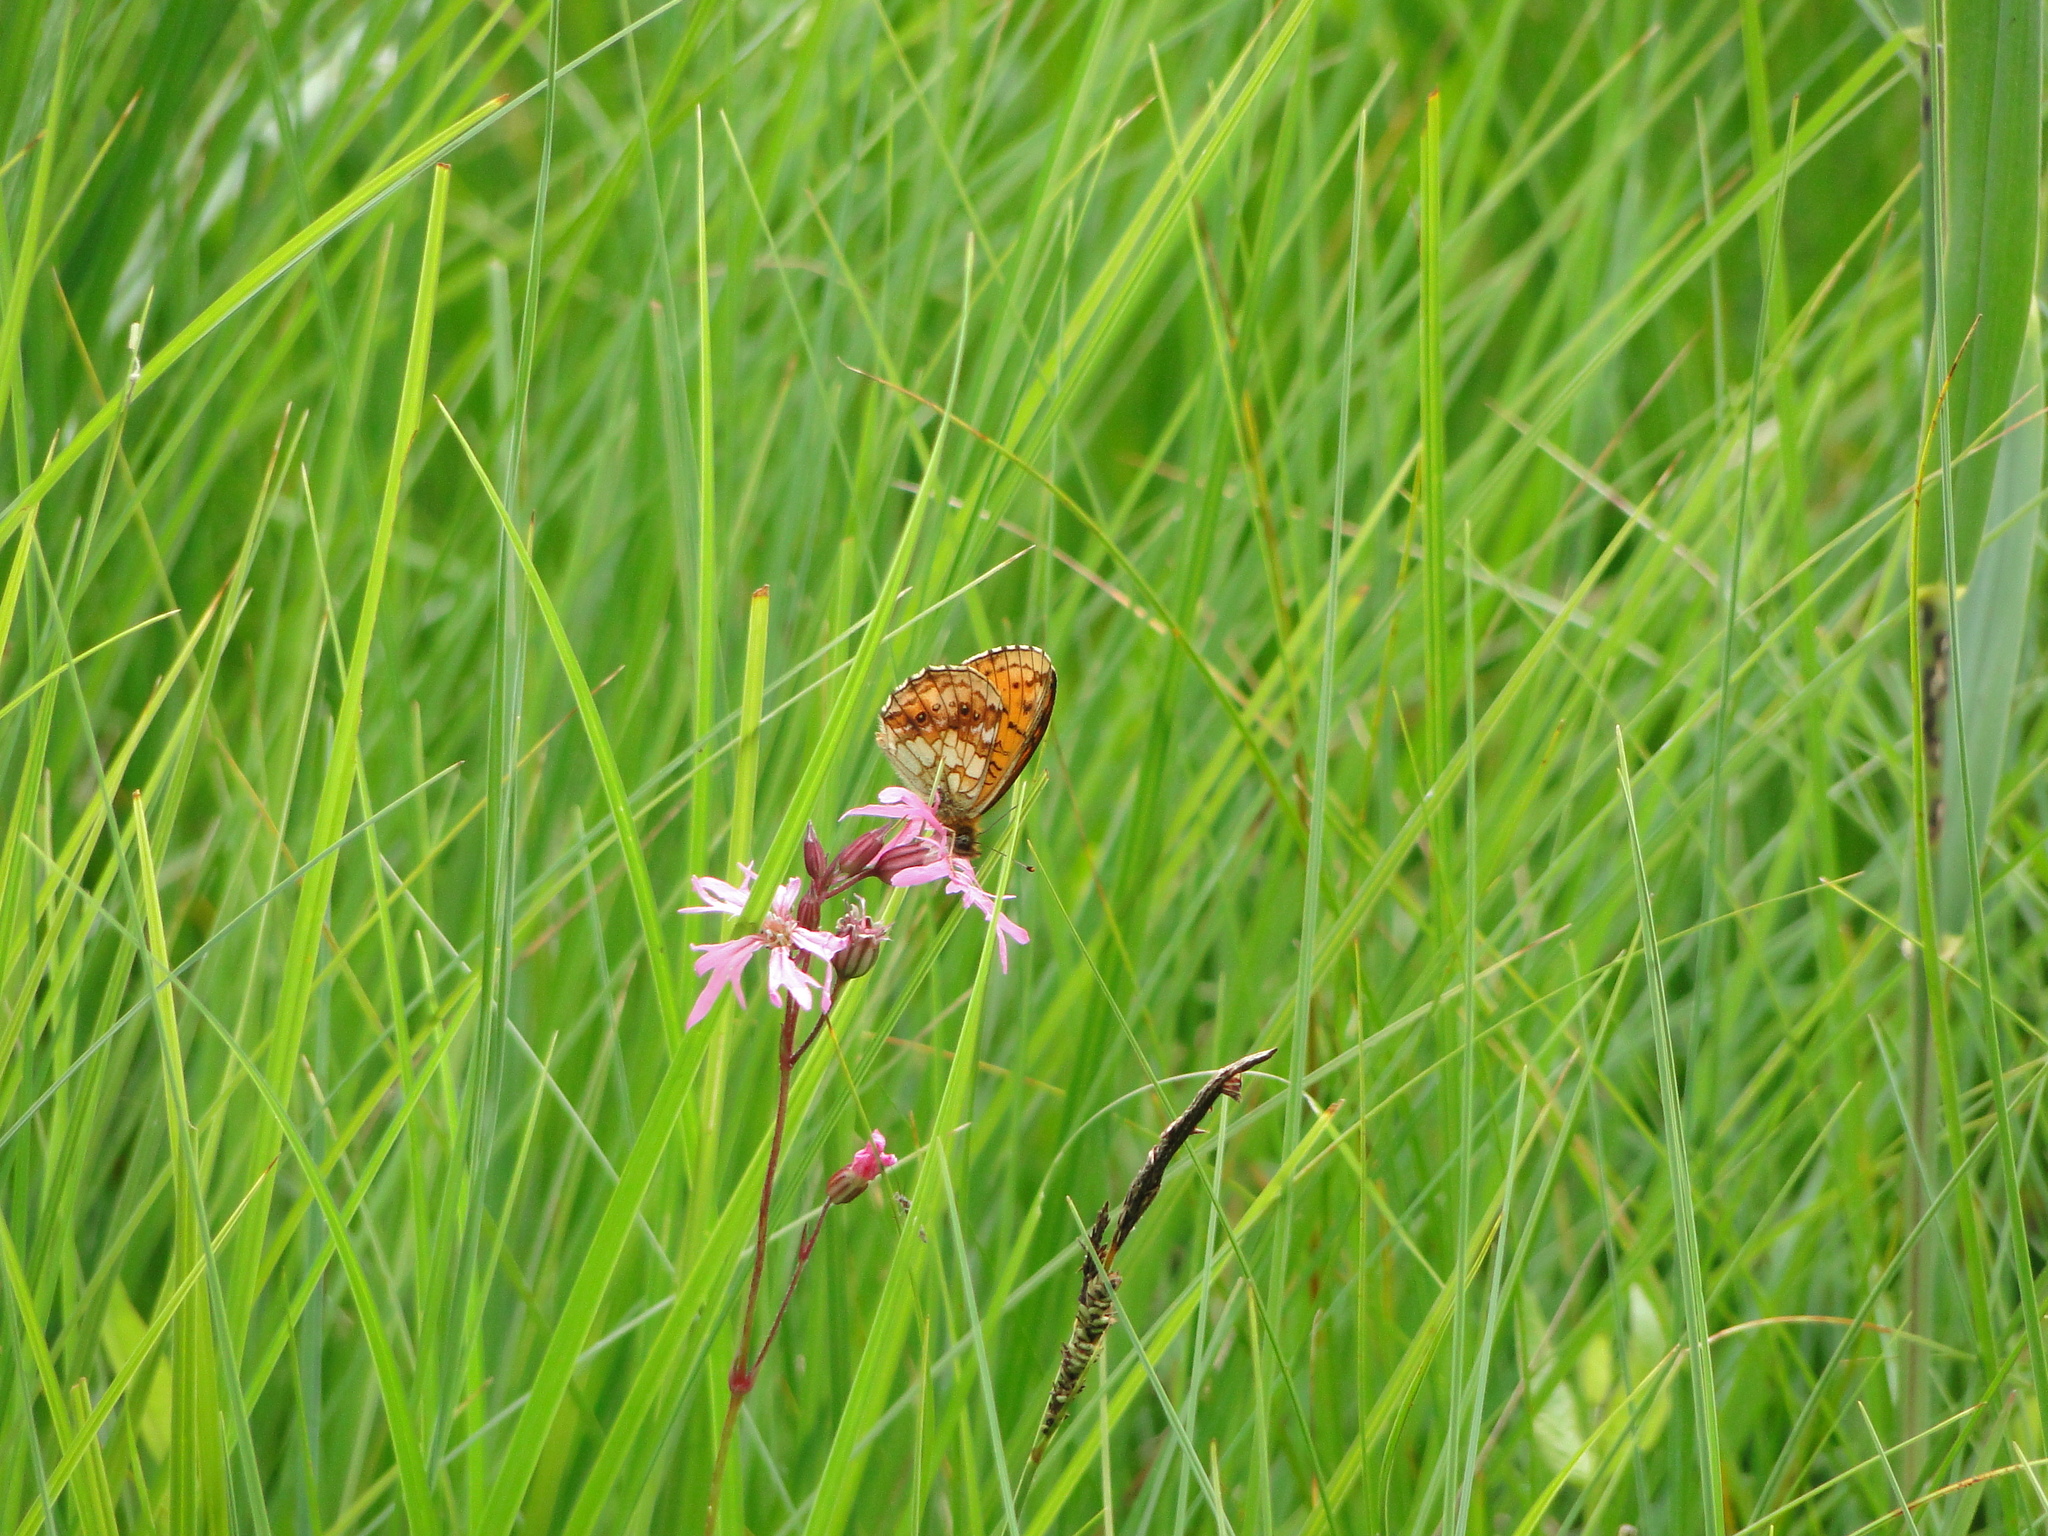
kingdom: Animalia
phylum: Arthropoda
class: Insecta
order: Lepidoptera
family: Nymphalidae
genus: Brenthis
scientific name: Brenthis ino
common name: Lesser marbled fritillary
